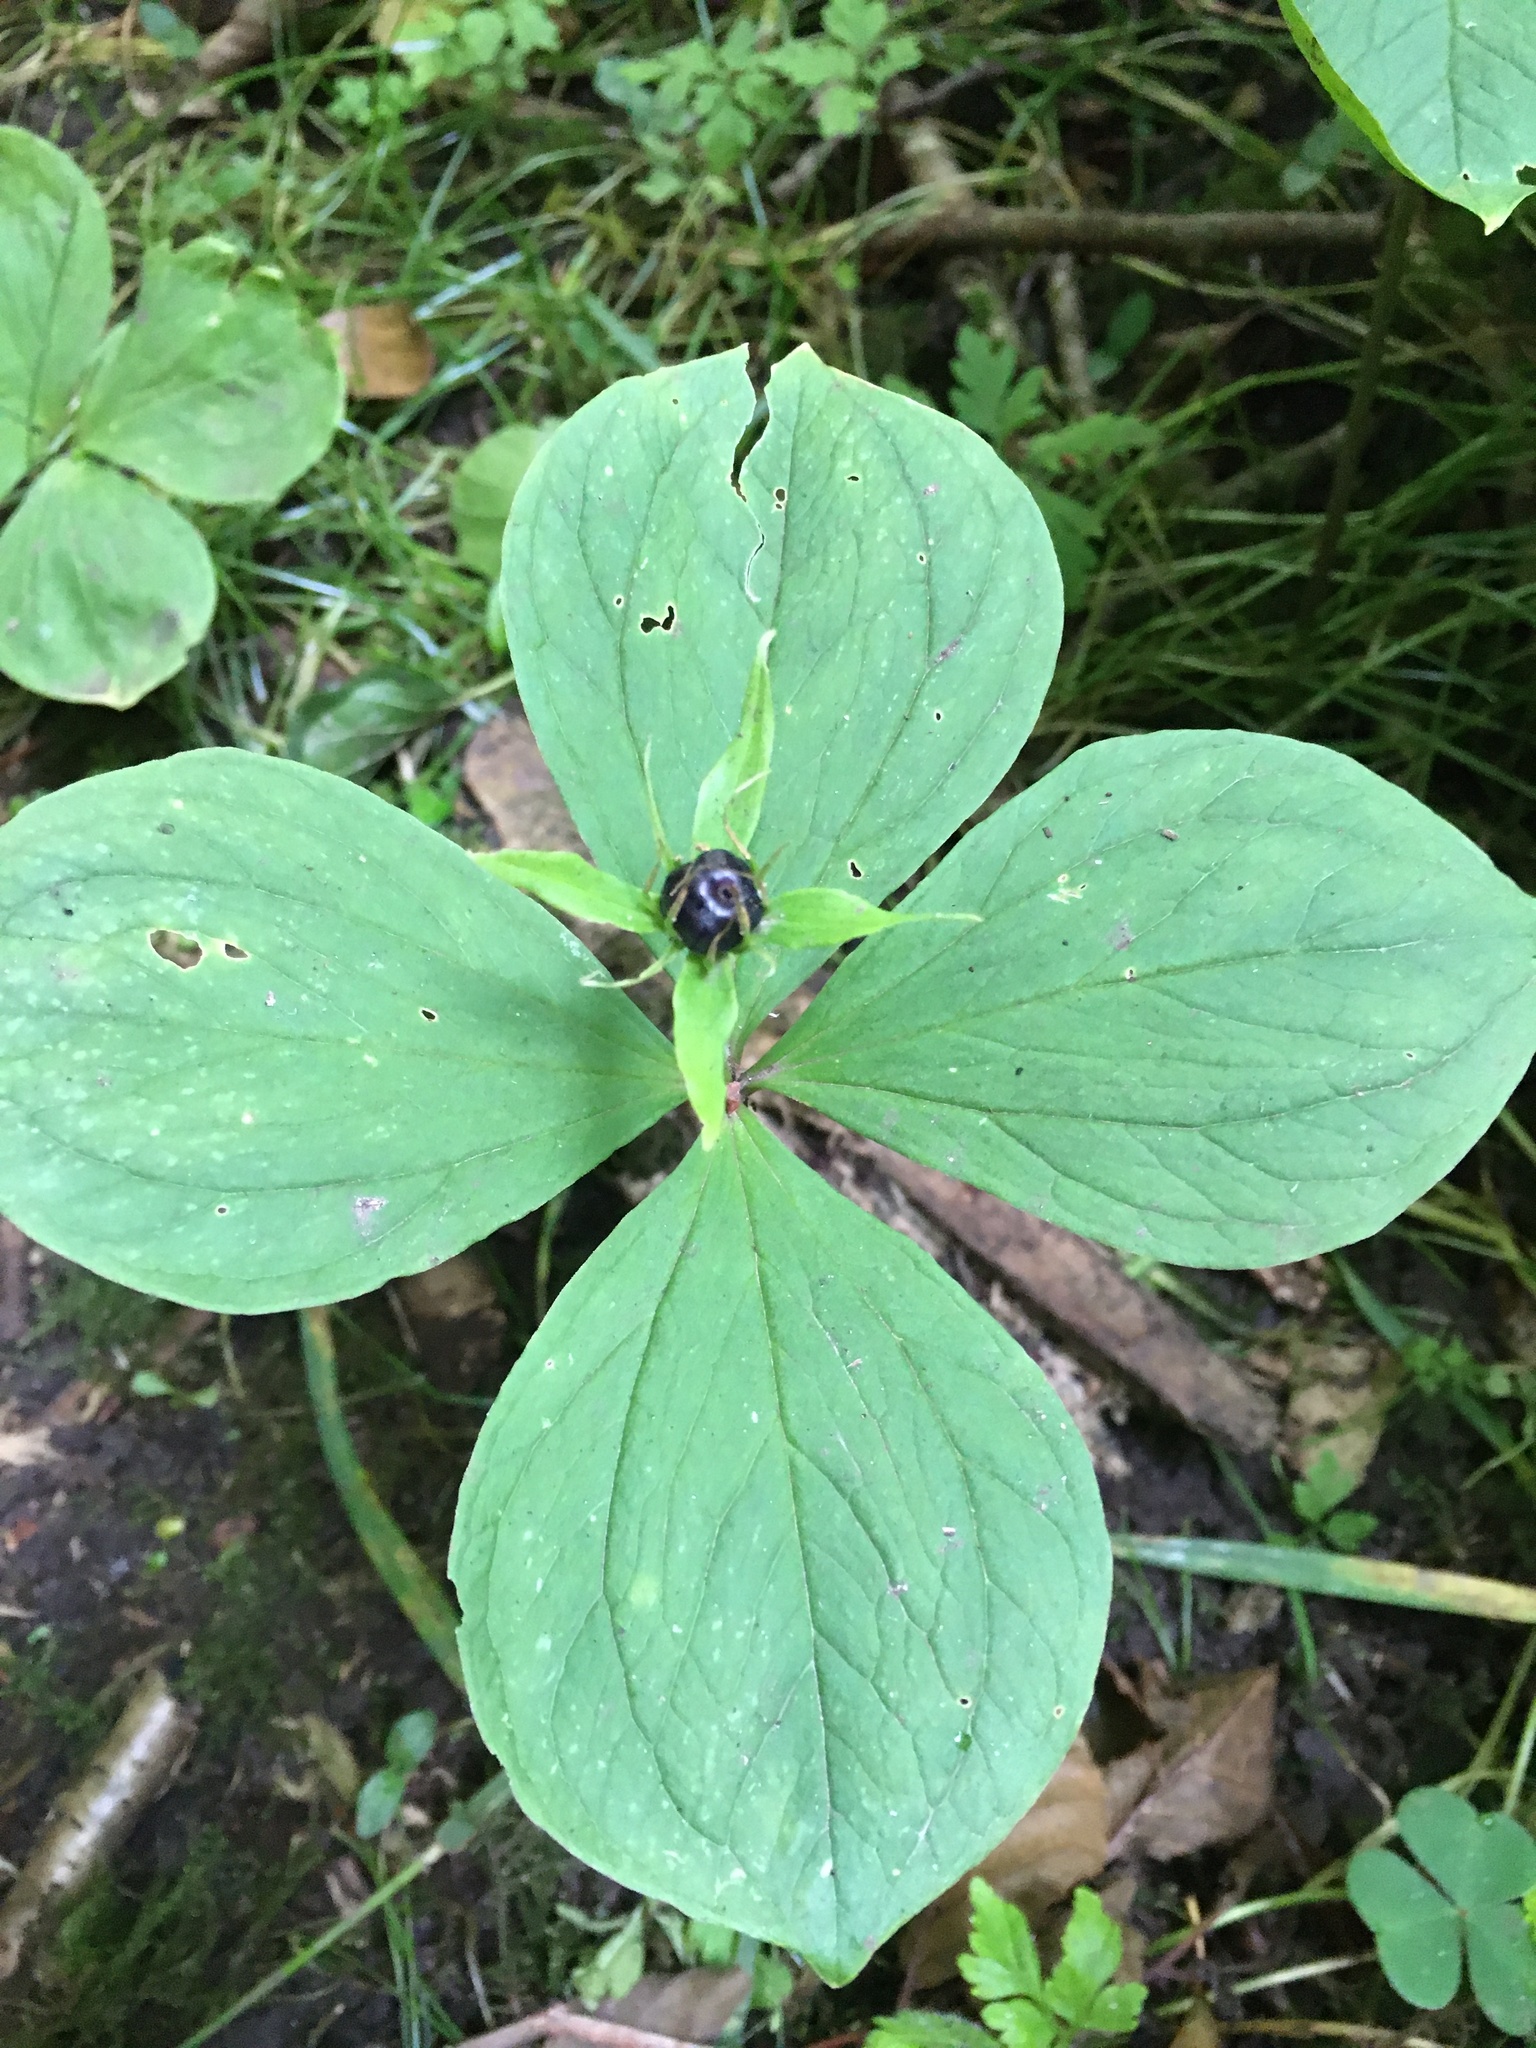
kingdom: Plantae
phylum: Tracheophyta
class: Liliopsida
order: Liliales
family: Melanthiaceae
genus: Paris
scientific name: Paris quadrifolia
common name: Herb-paris
